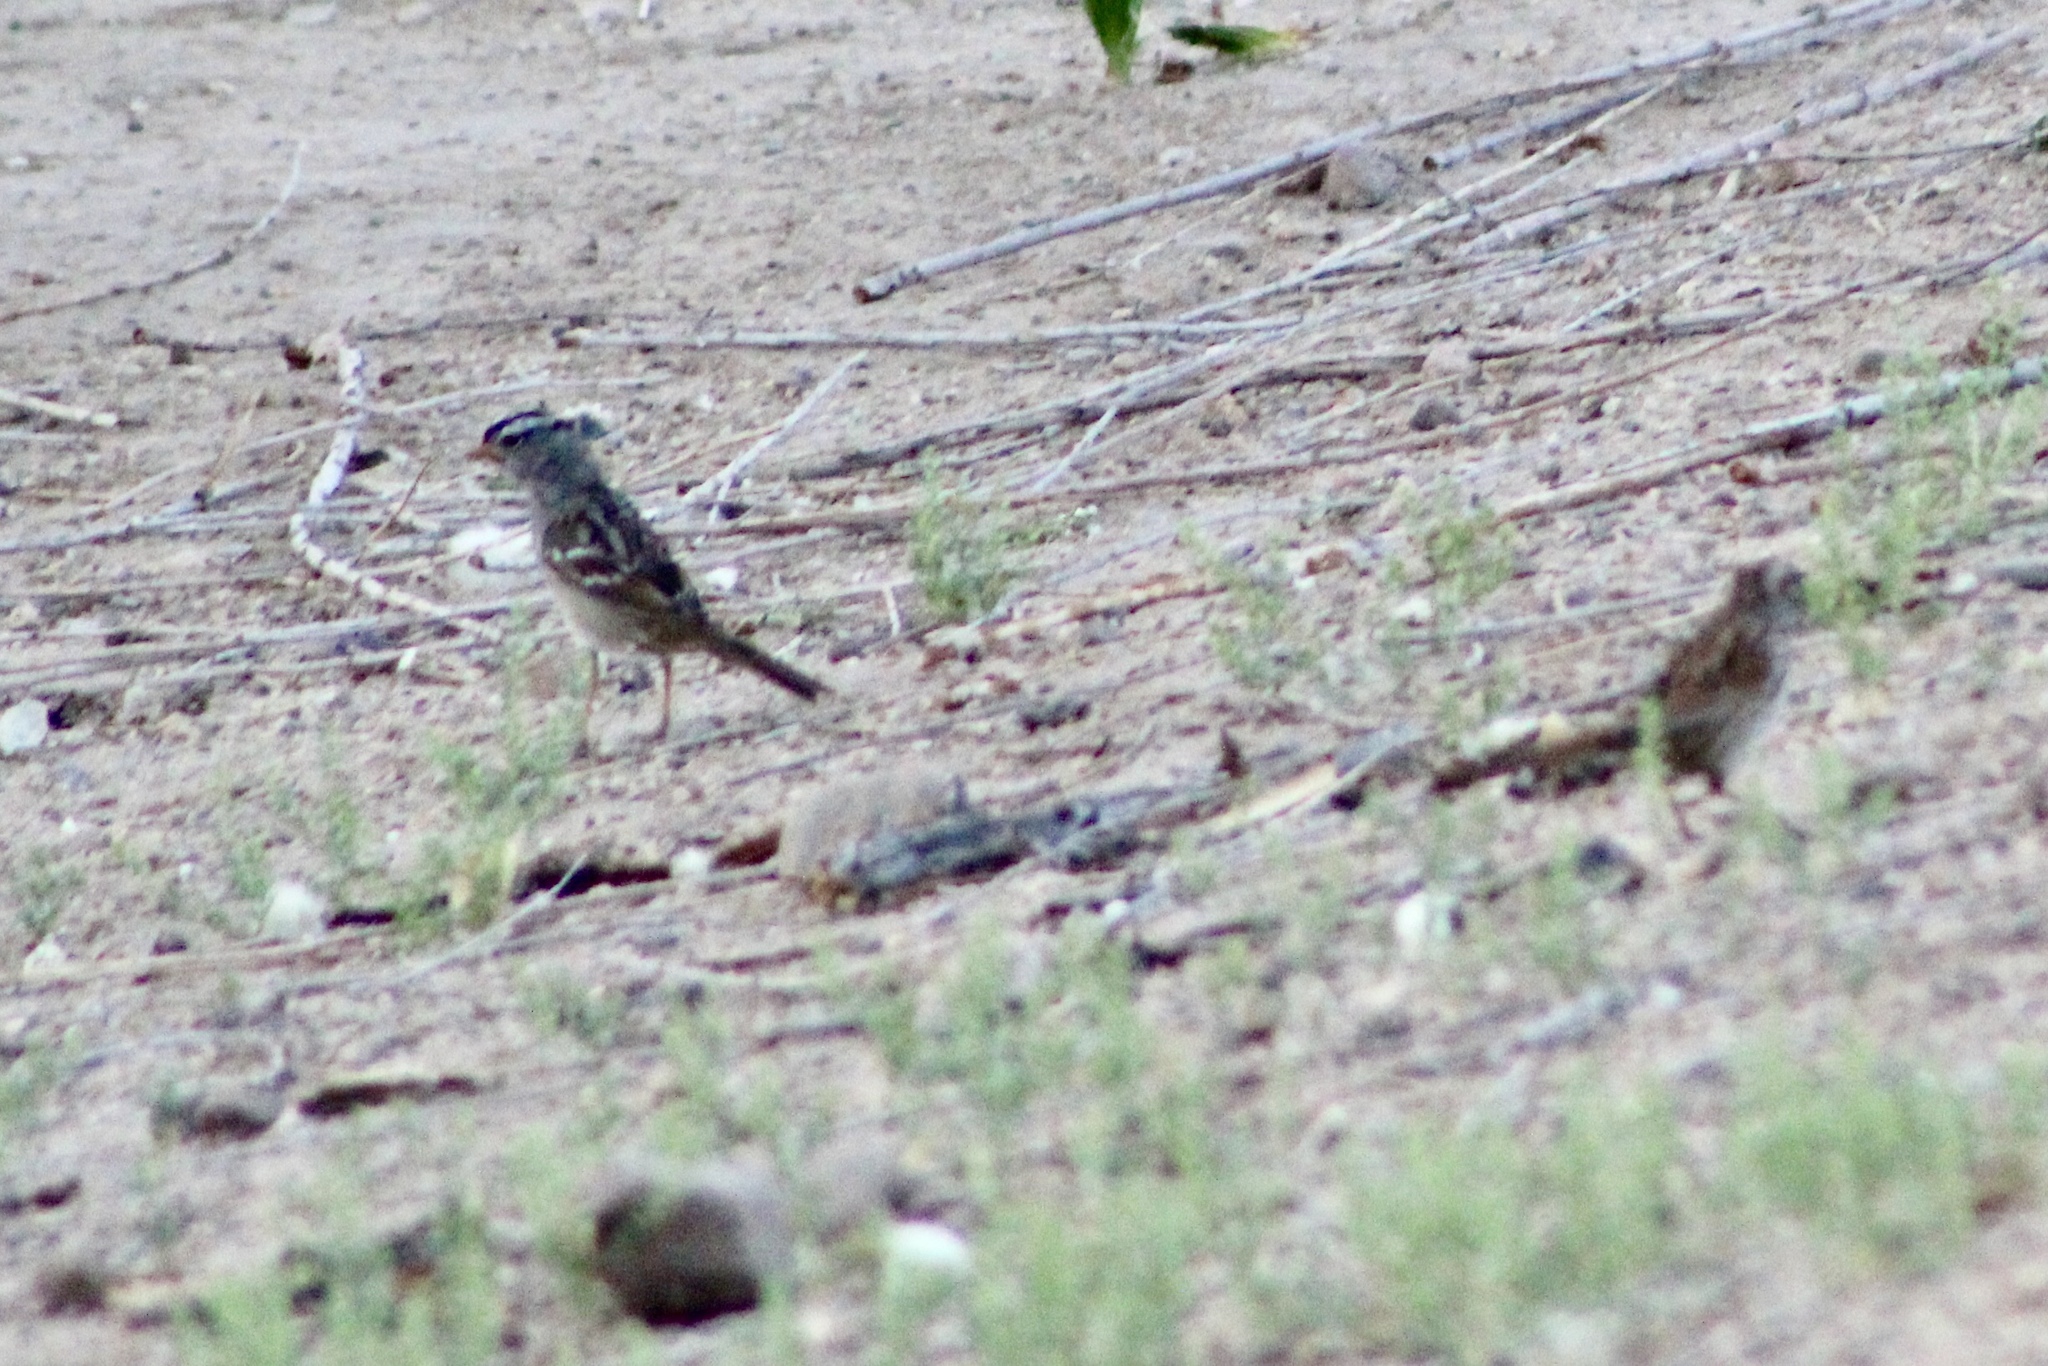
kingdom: Animalia
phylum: Chordata
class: Aves
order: Passeriformes
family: Passerellidae
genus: Melospiza
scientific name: Melospiza melodia
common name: Song sparrow
